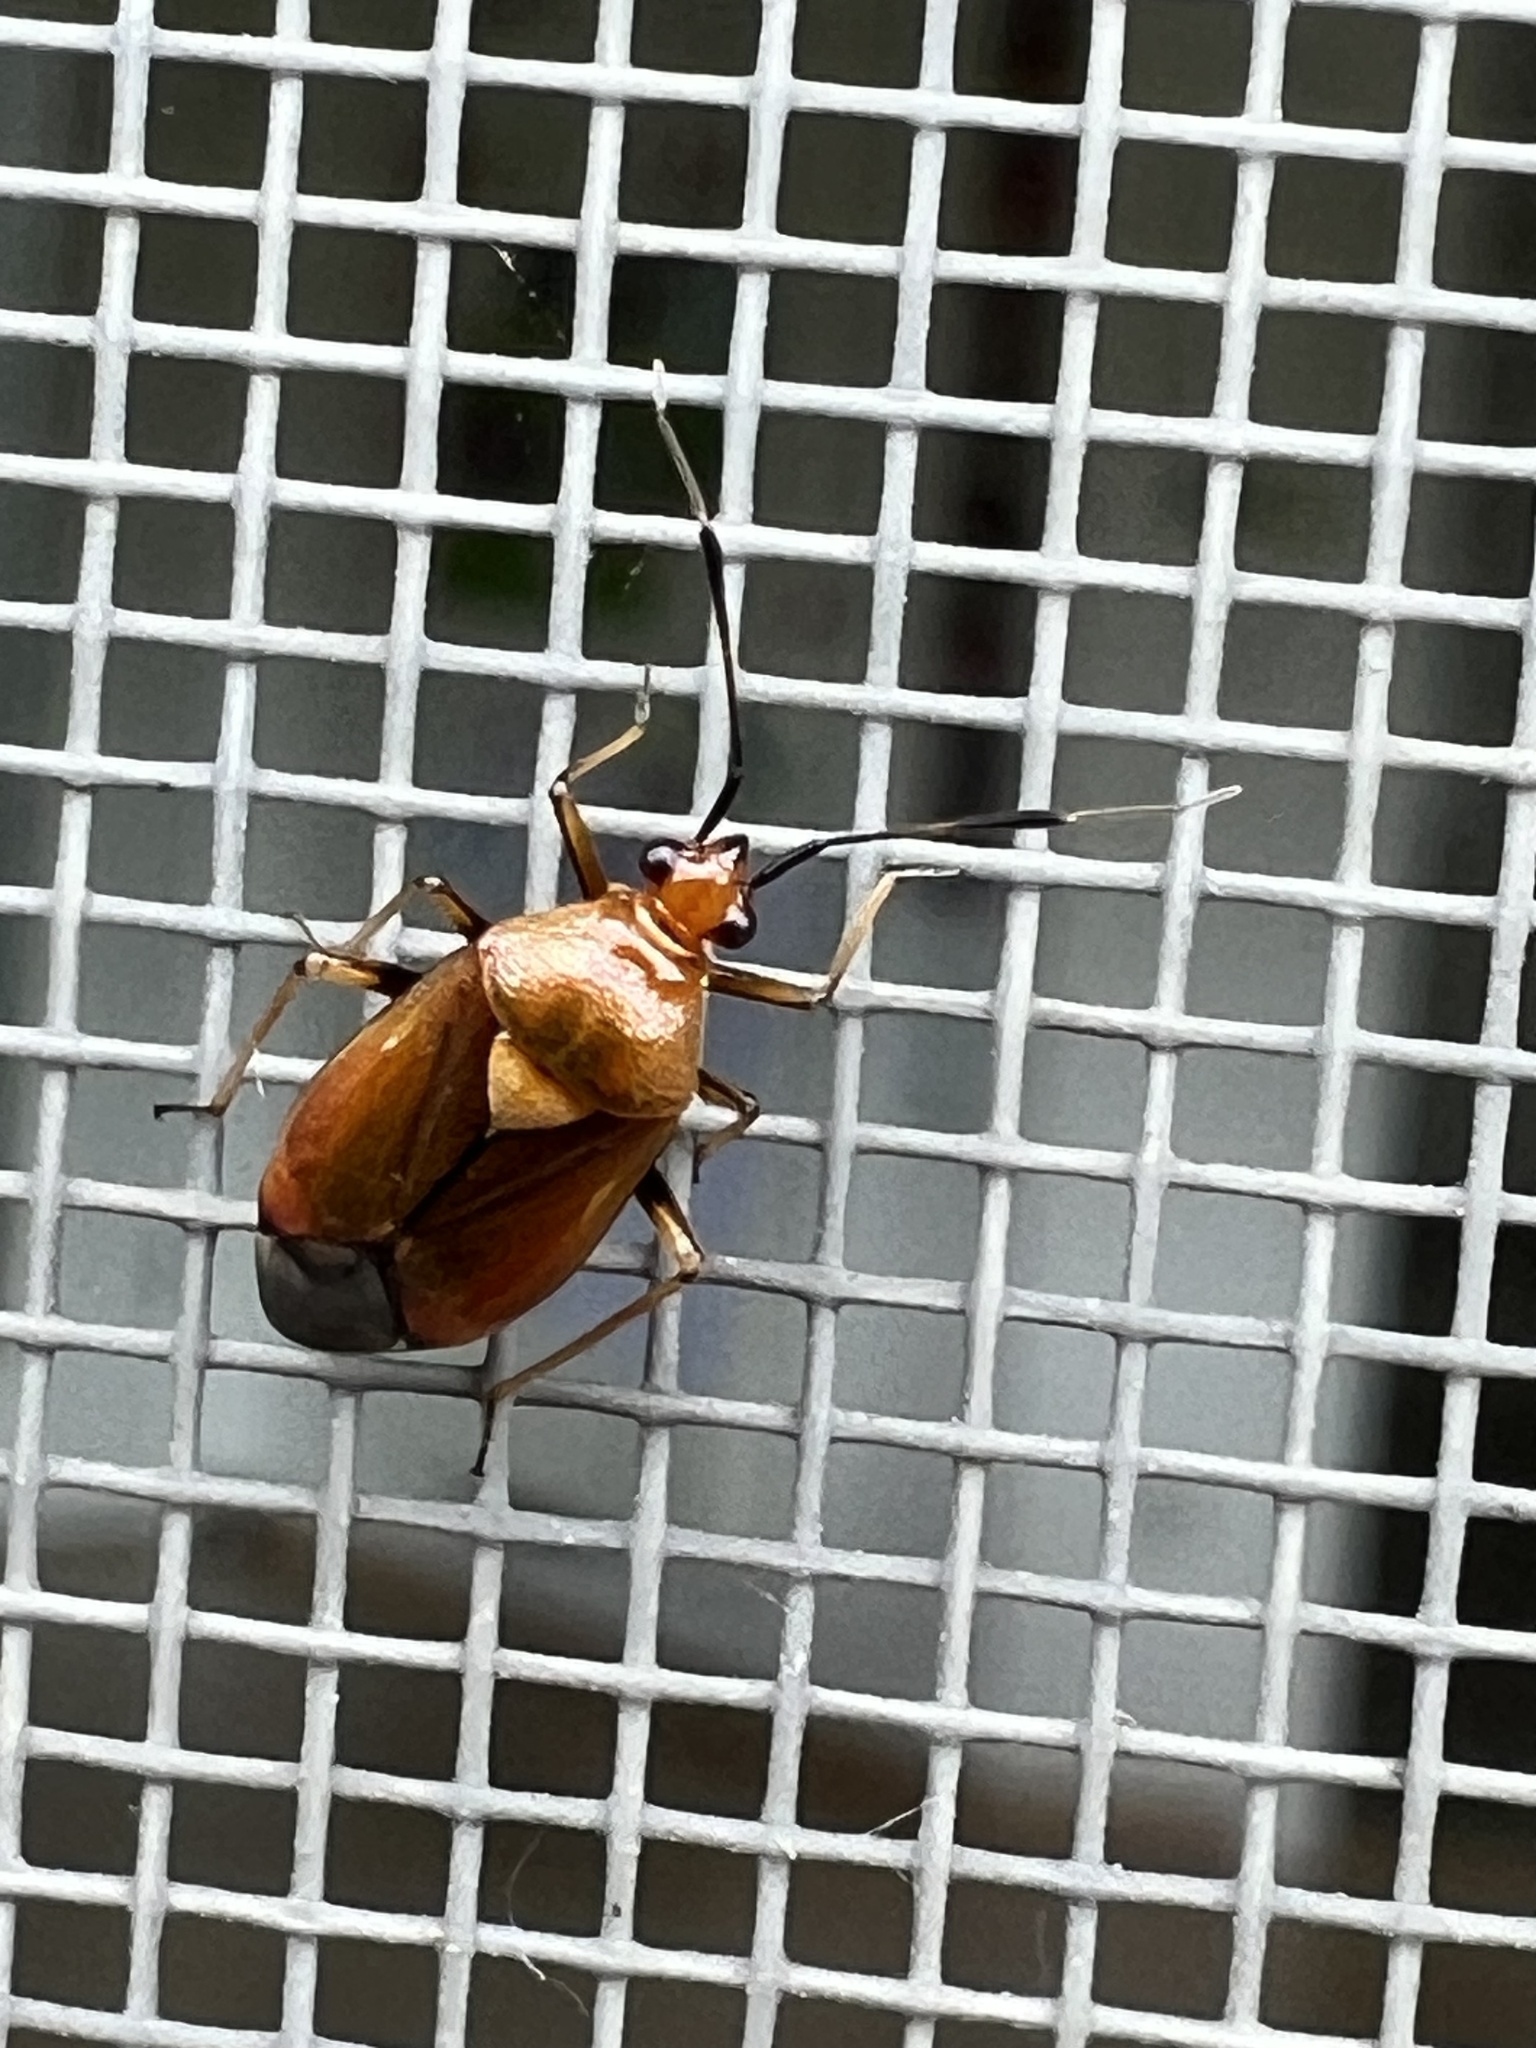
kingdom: Animalia
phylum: Arthropoda
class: Insecta
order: Hemiptera
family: Miridae
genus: Deraeocoris
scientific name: Deraeocoris ruber
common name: Plant bug
